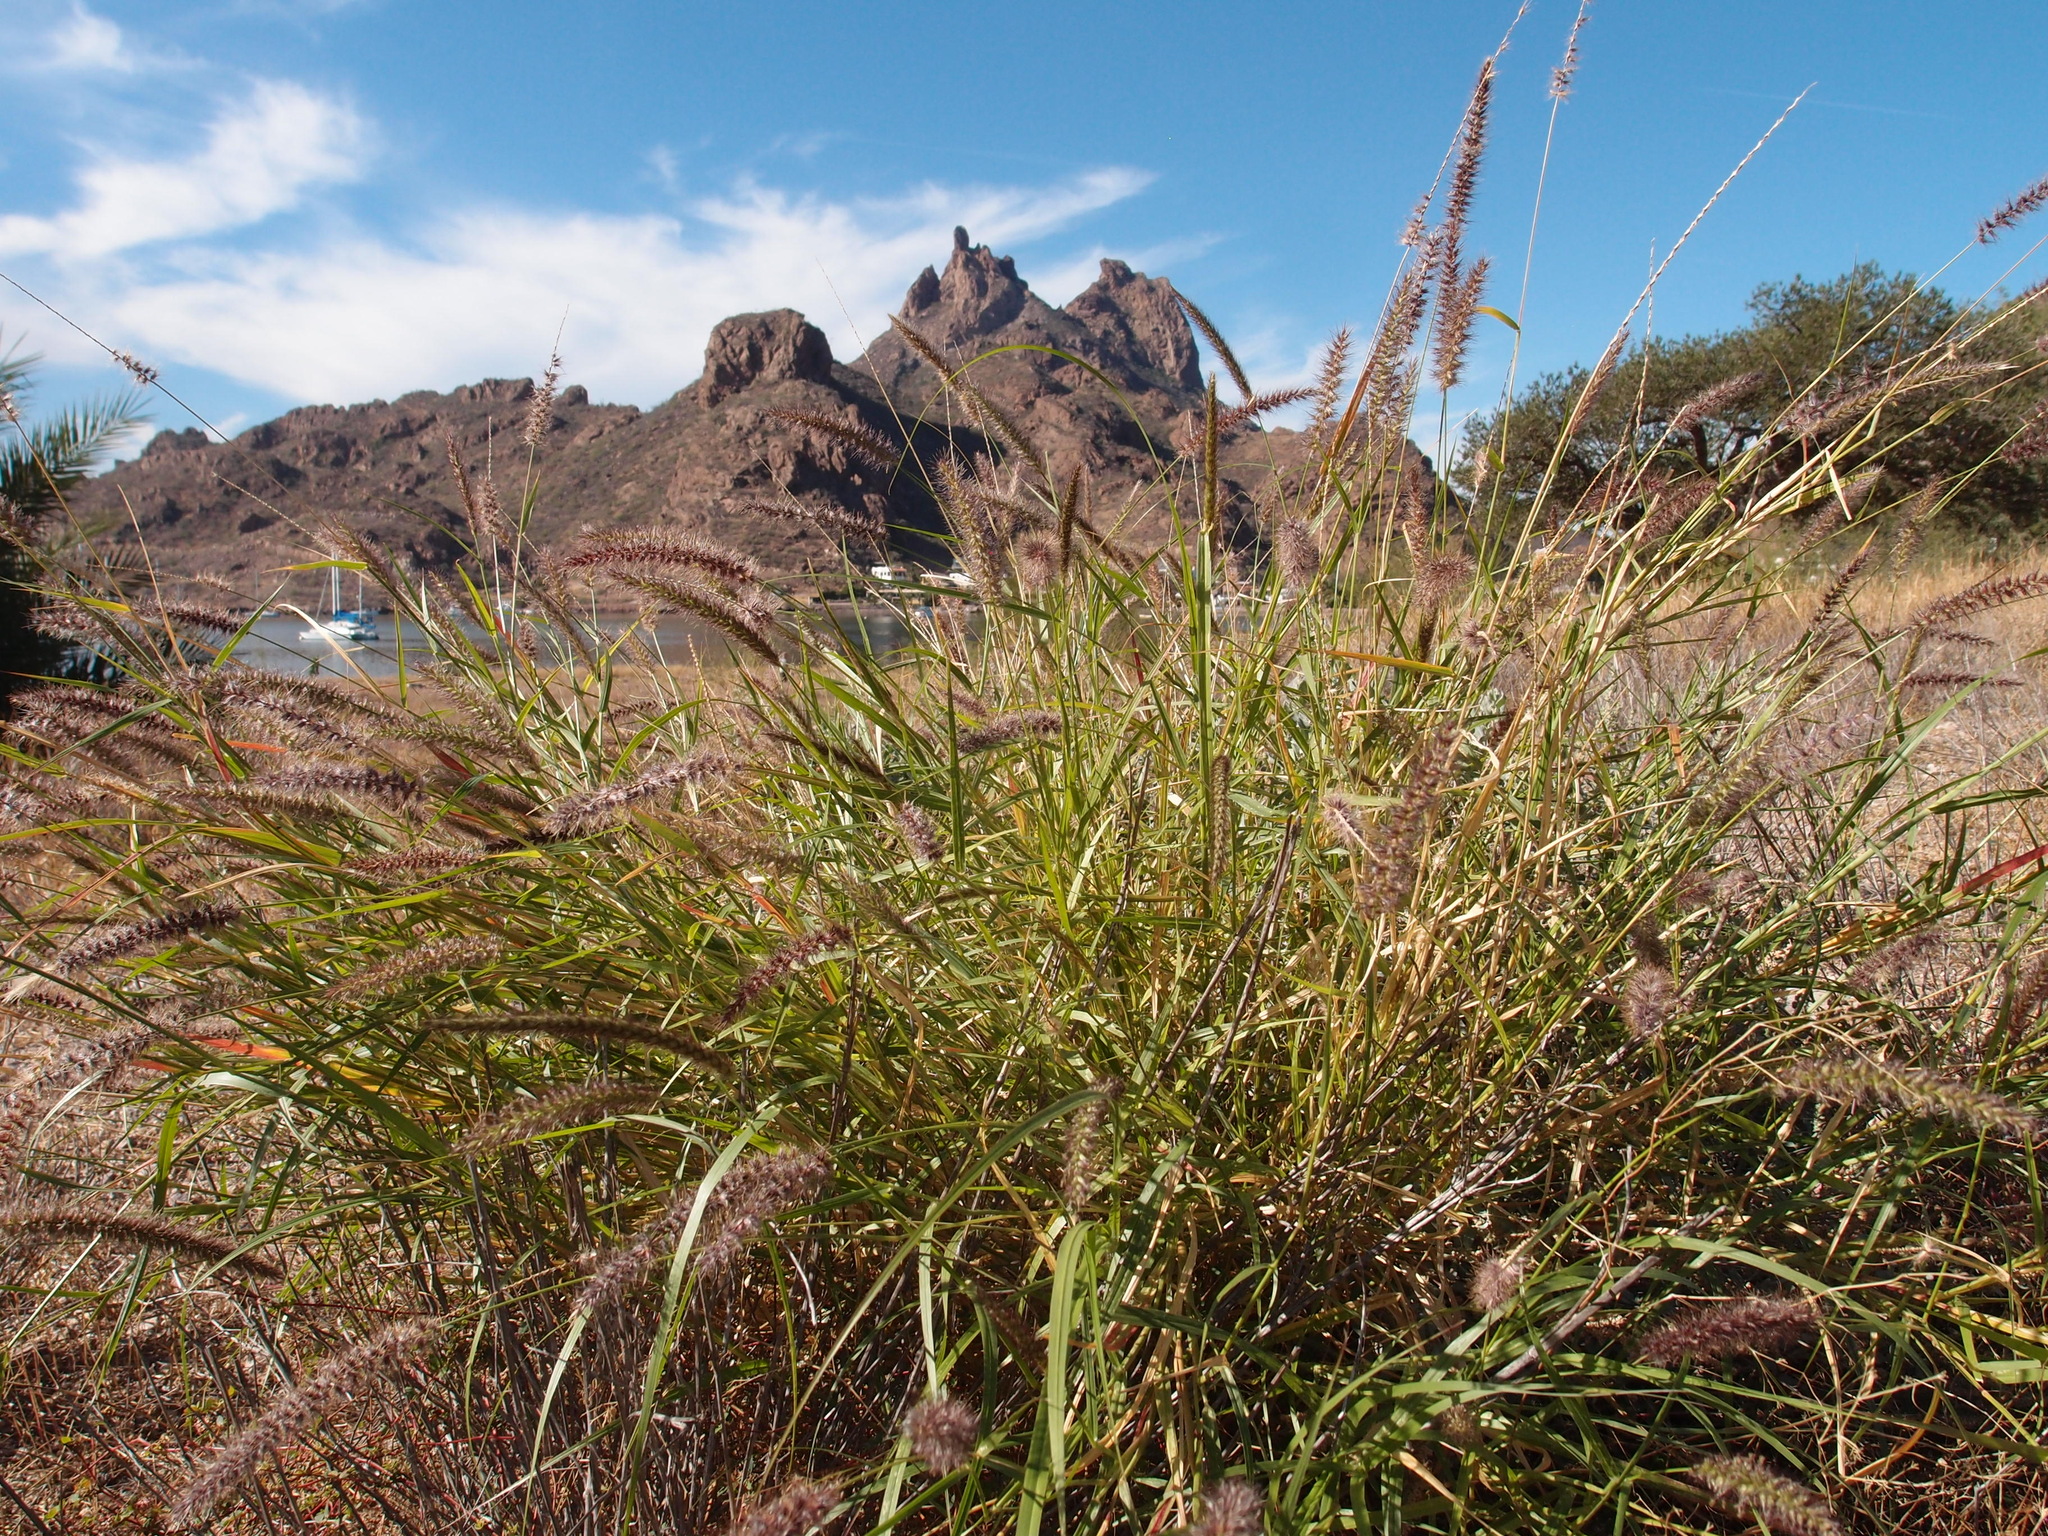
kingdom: Plantae
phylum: Tracheophyta
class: Liliopsida
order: Poales
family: Poaceae
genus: Cenchrus
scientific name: Cenchrus ciliaris
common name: Buffelgrass
